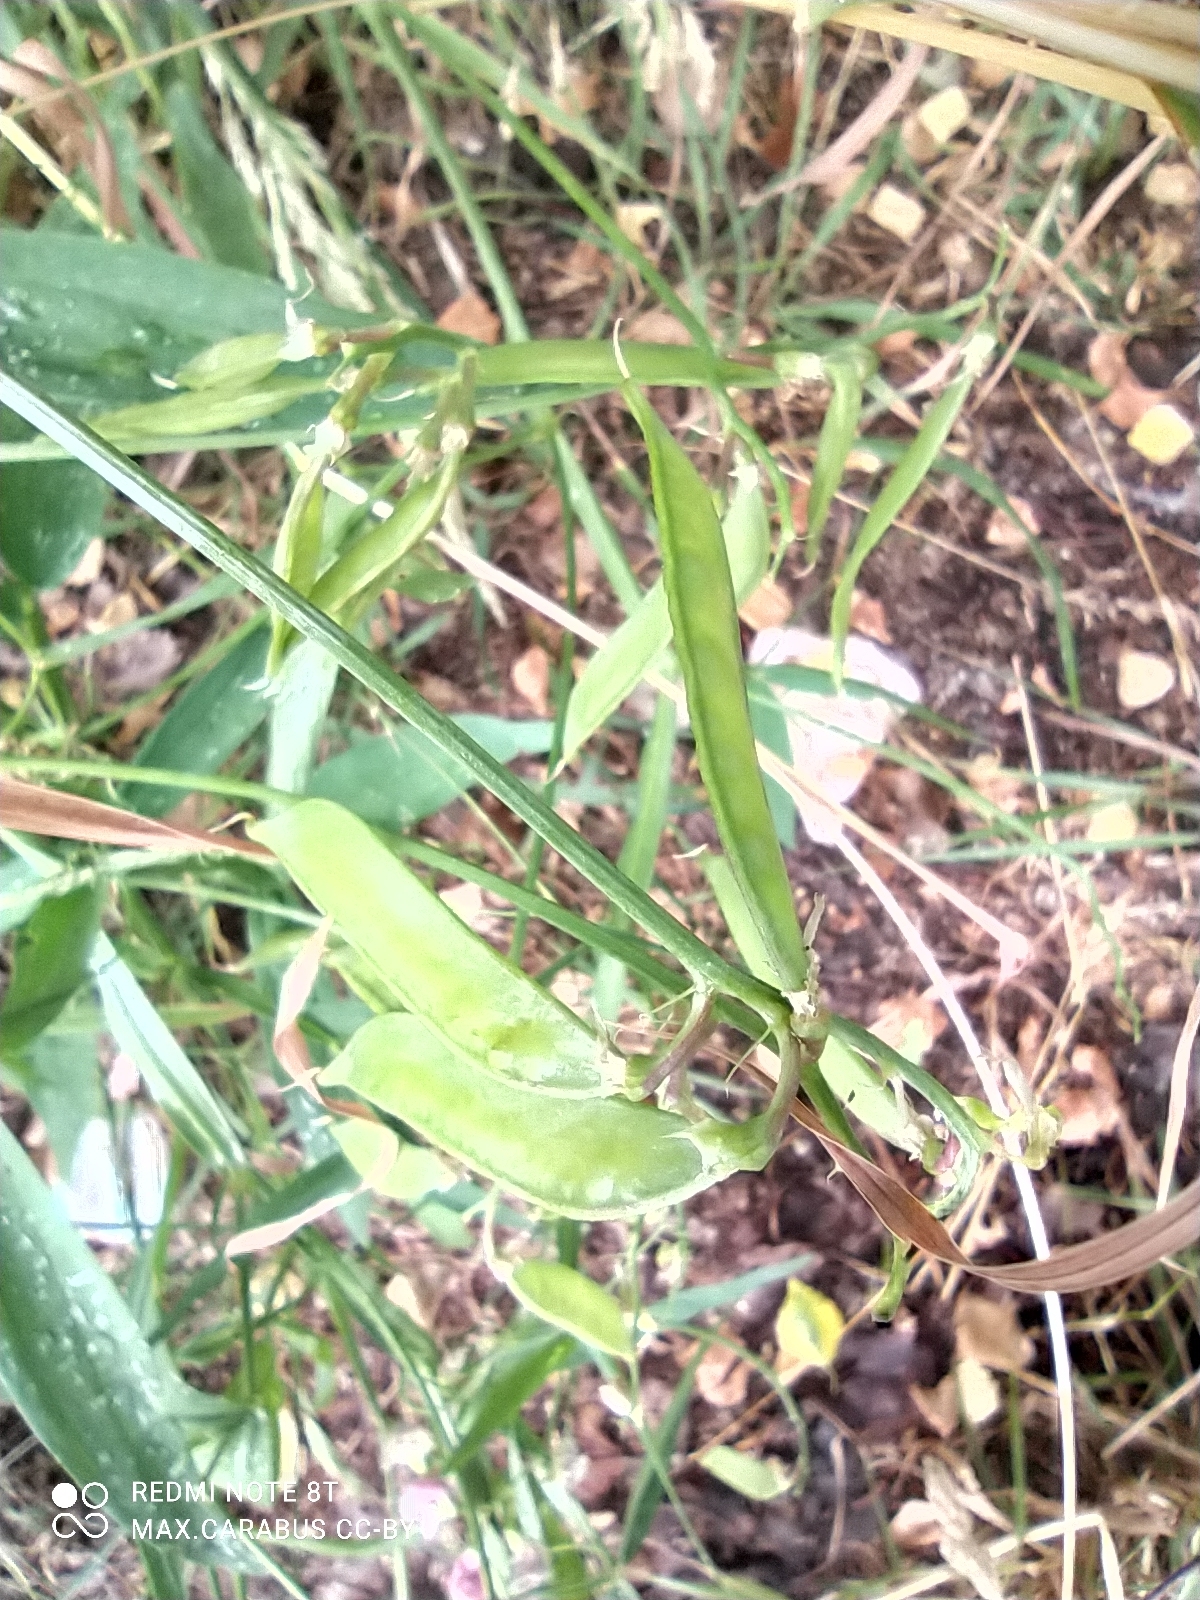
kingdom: Plantae
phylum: Tracheophyta
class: Magnoliopsida
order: Fabales
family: Fabaceae
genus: Lathyrus
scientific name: Lathyrus sylvestris
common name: Flat pea
